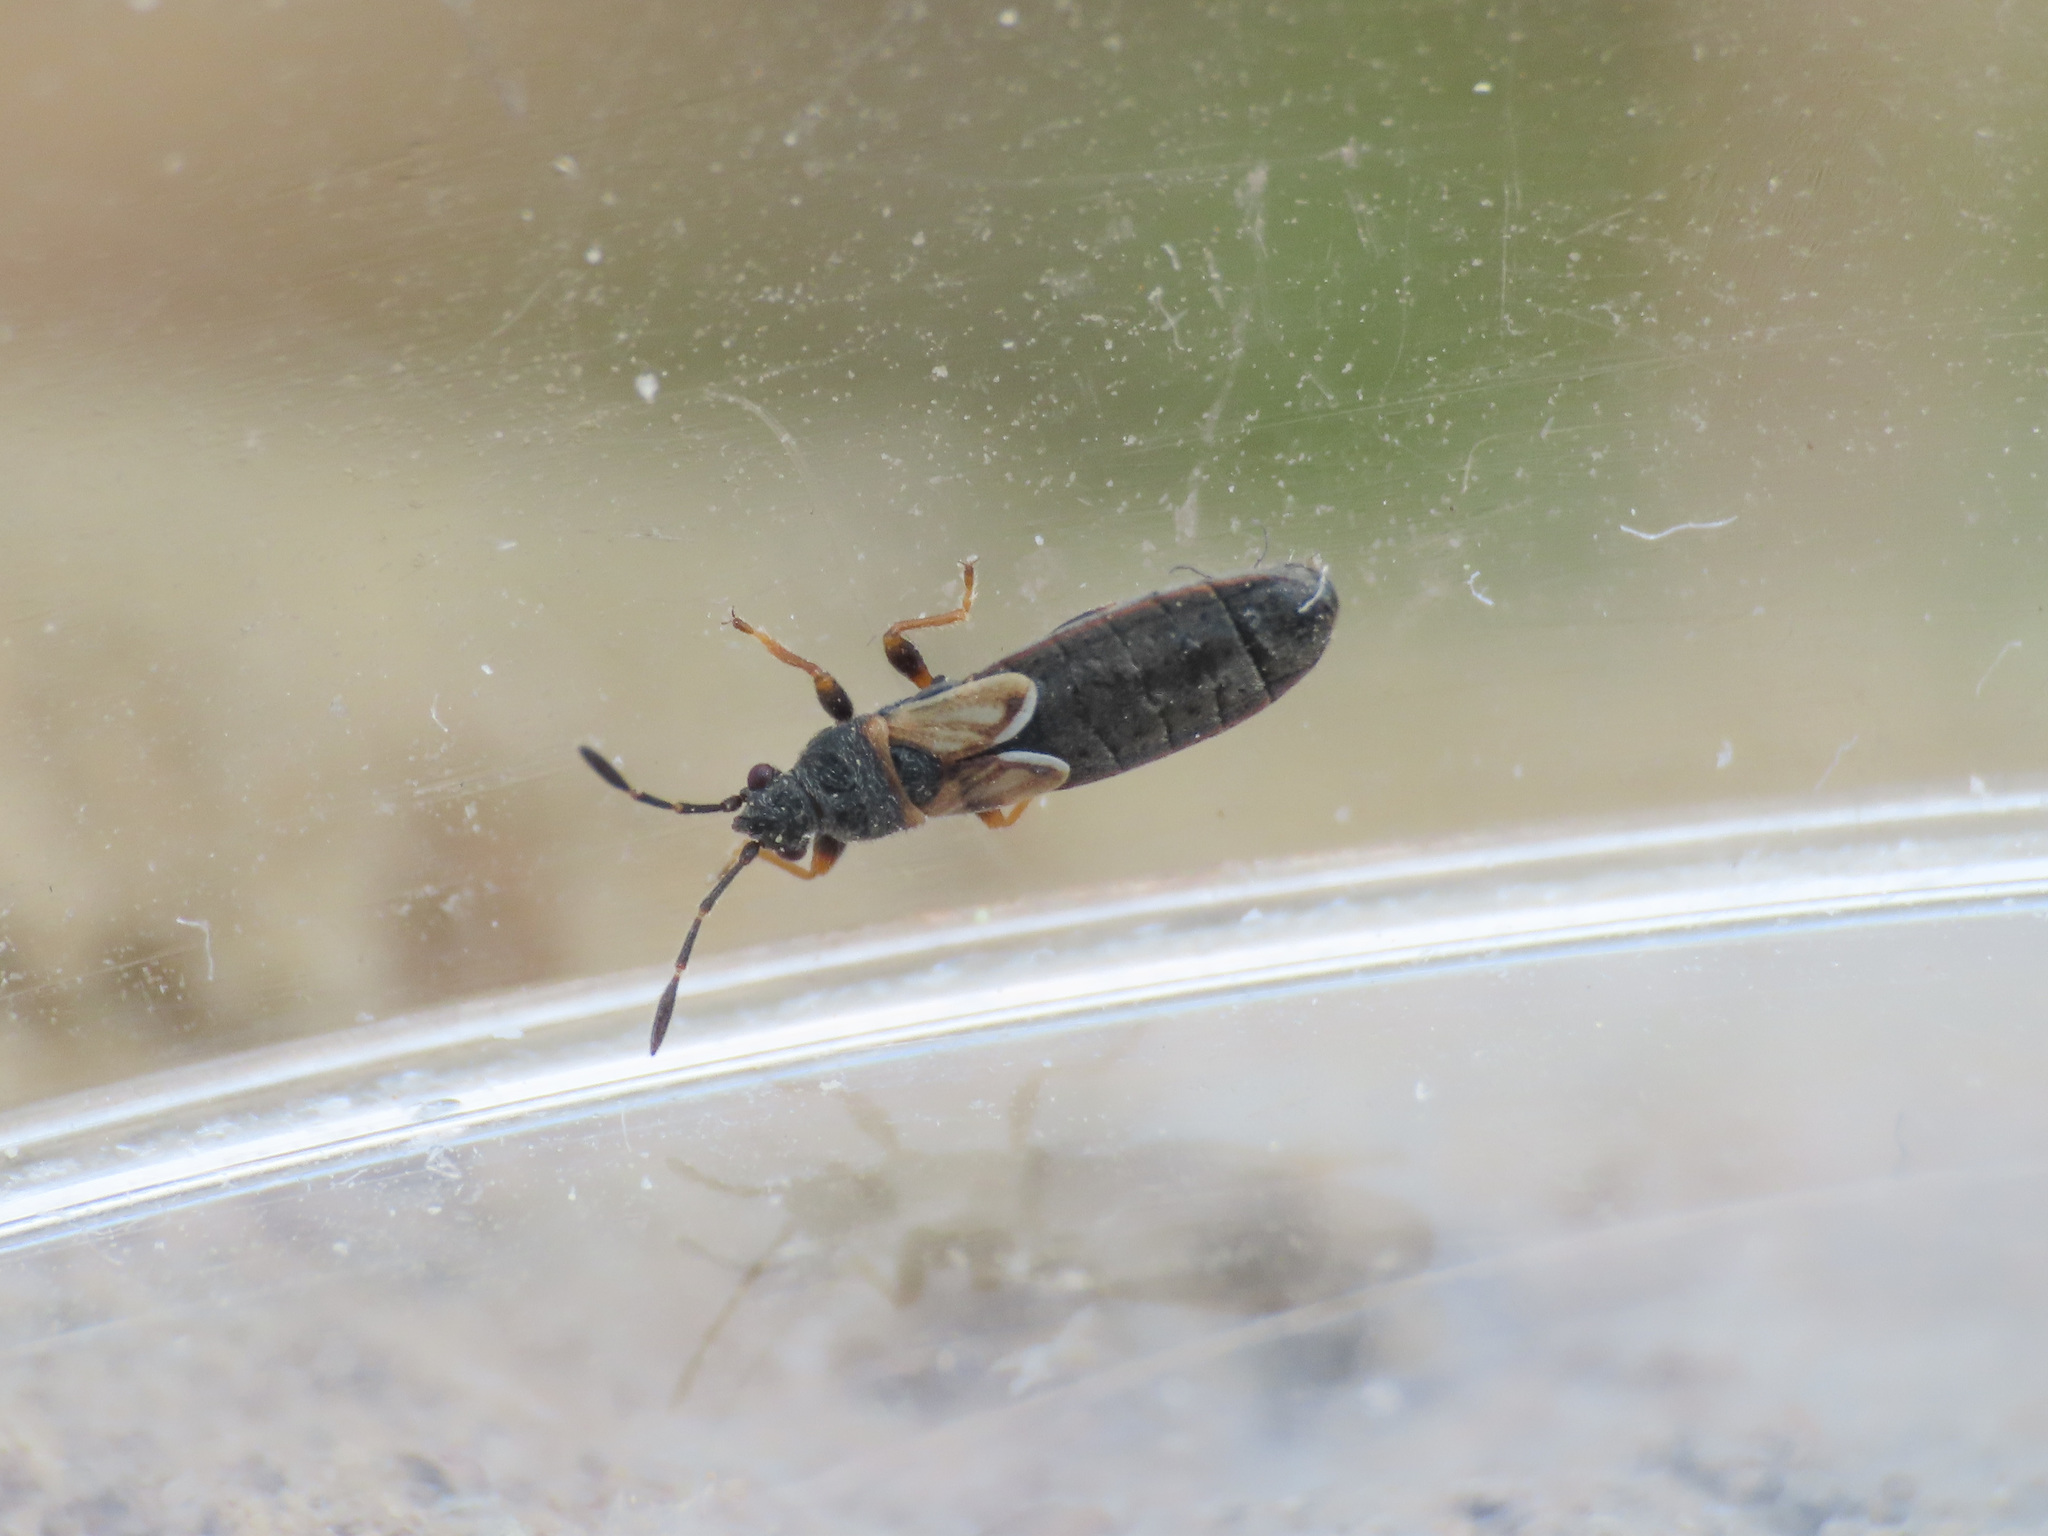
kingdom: Animalia
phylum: Arthropoda
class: Insecta
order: Hemiptera
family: Blissidae
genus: Ischnodemus
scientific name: Ischnodemus sabuleti
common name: European cinchbug
